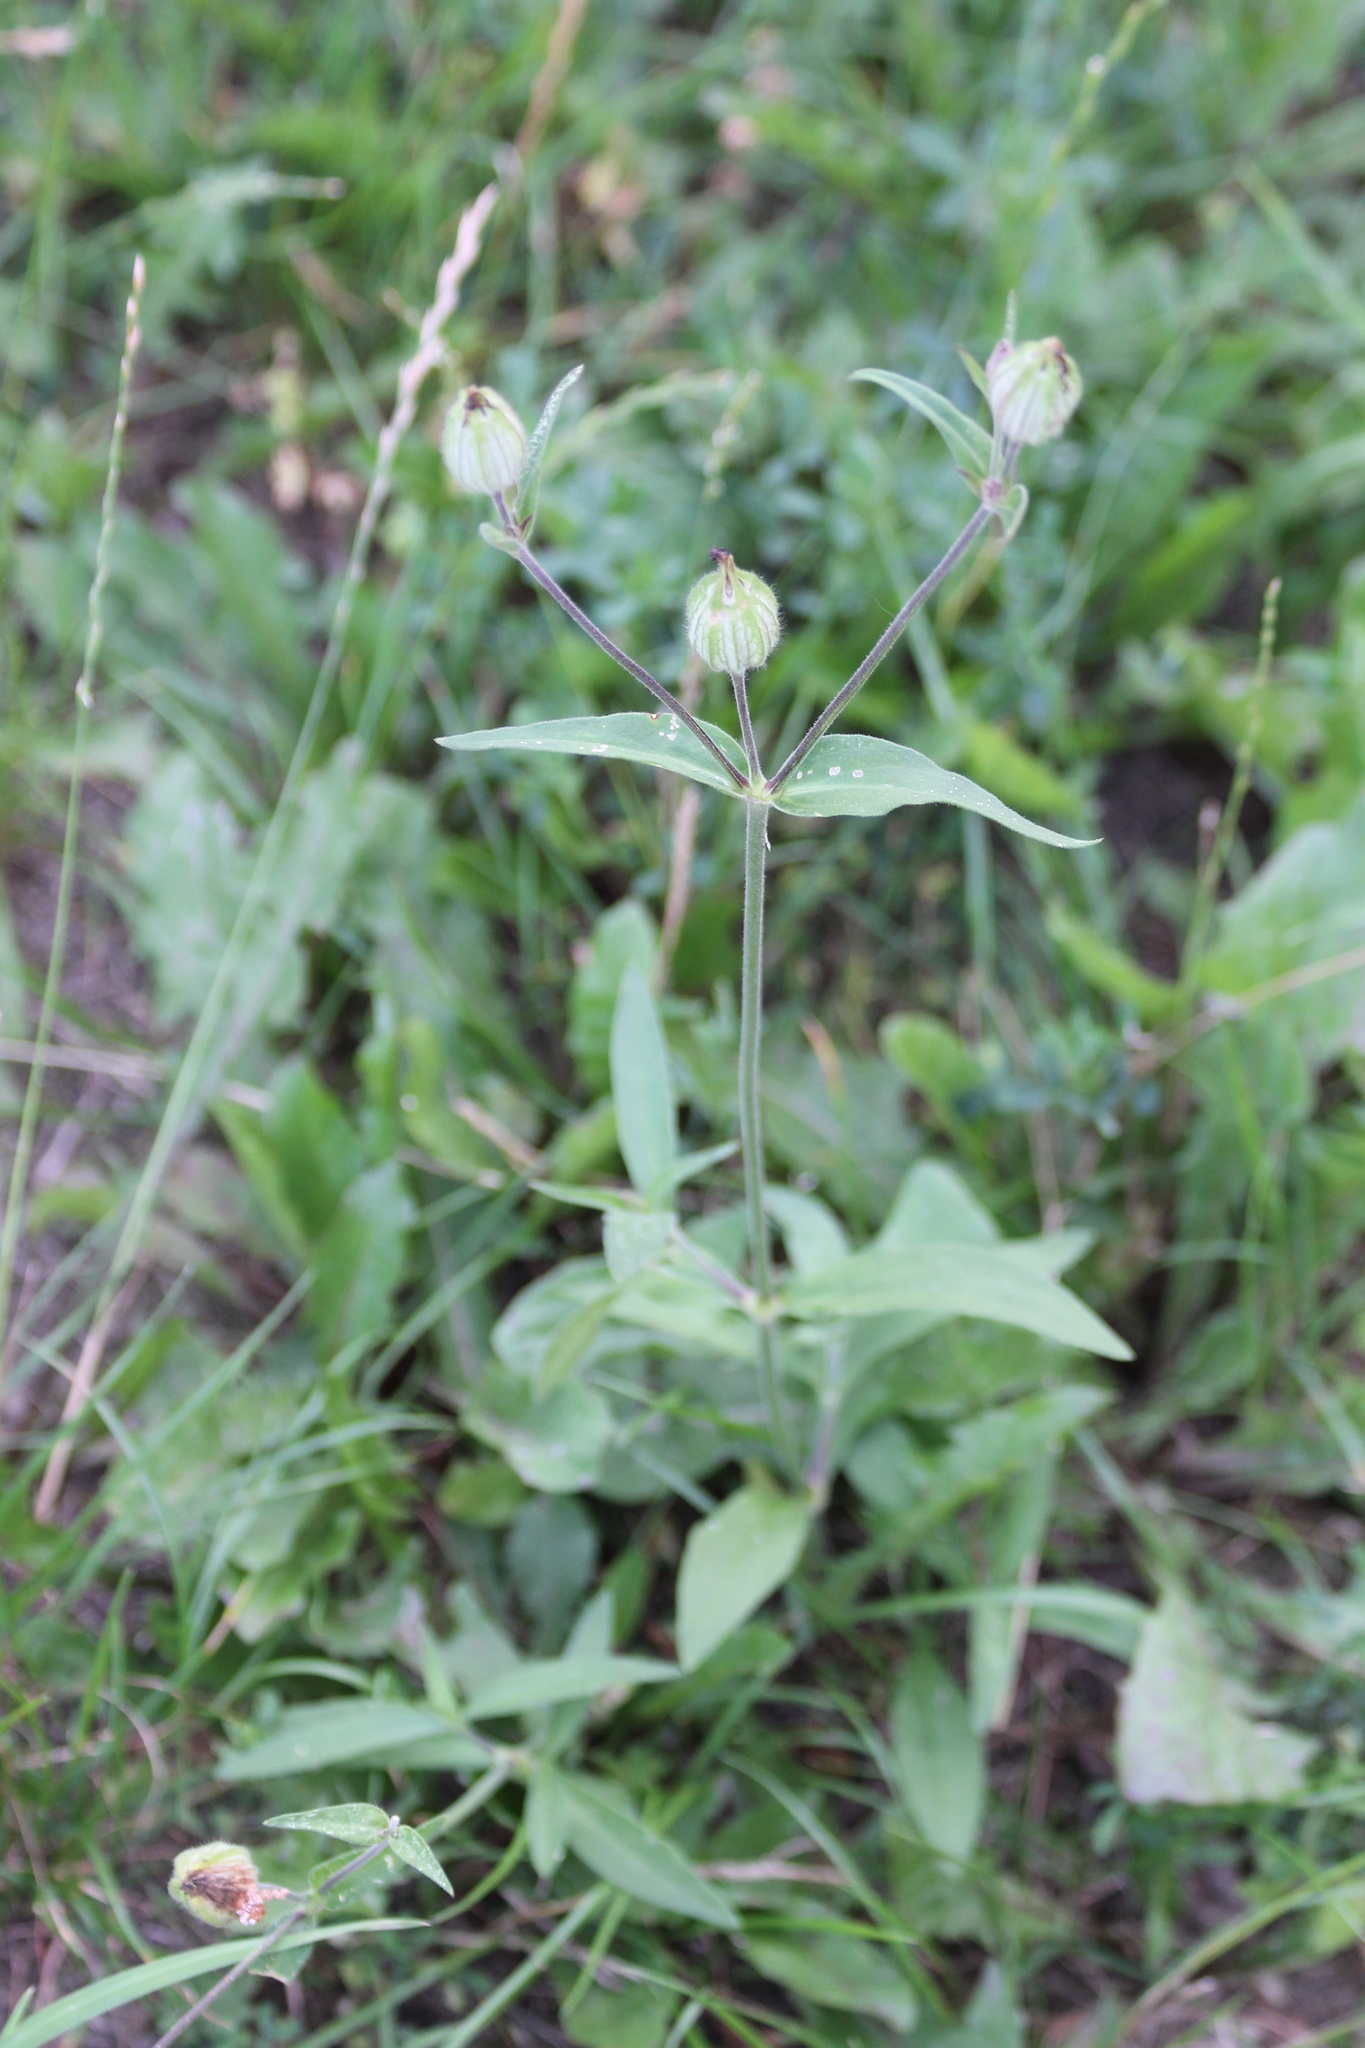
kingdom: Plantae
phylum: Tracheophyta
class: Magnoliopsida
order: Caryophyllales
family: Caryophyllaceae
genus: Silene
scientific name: Silene latifolia
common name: White campion
